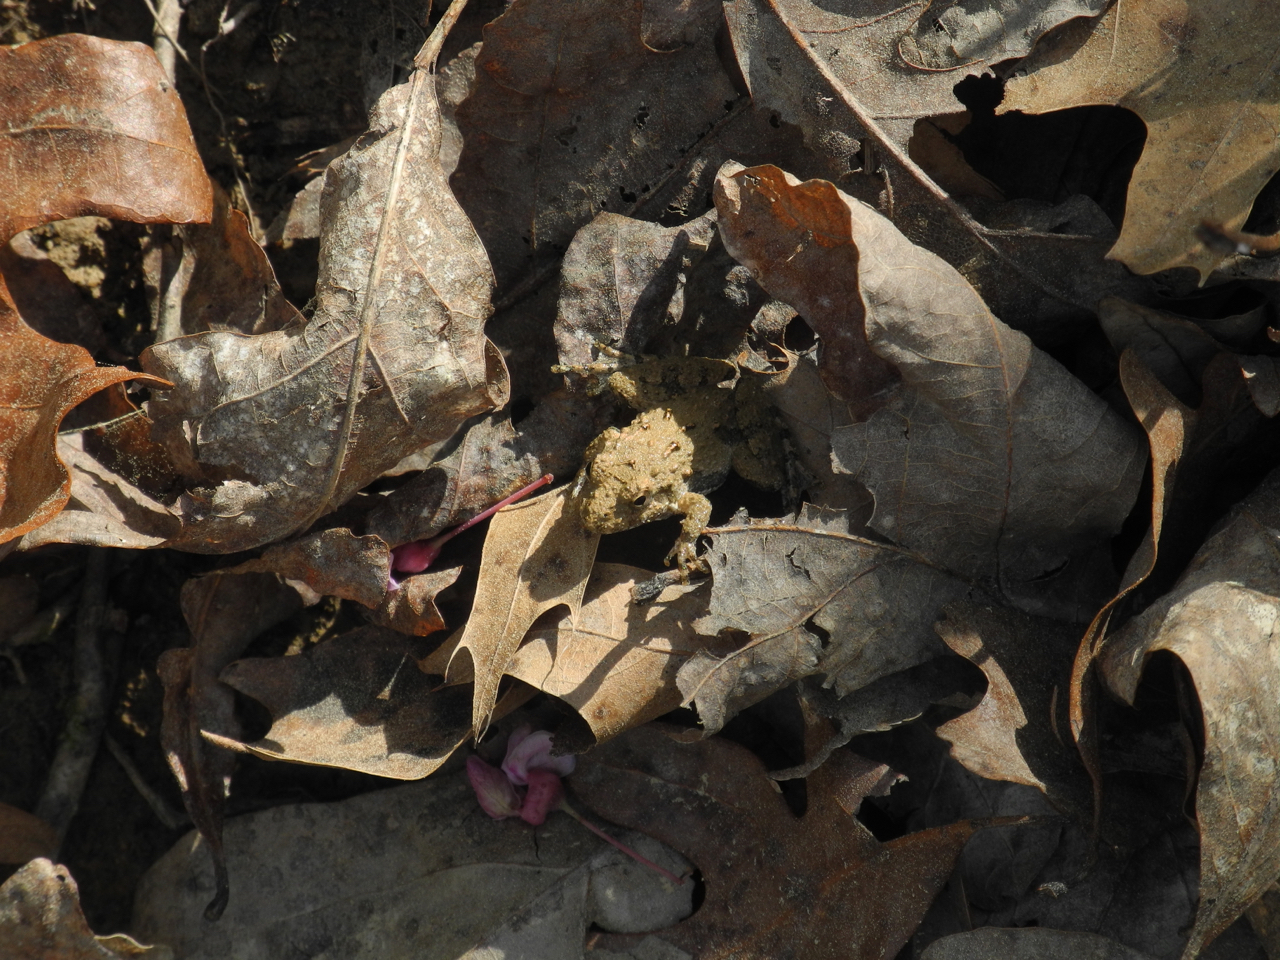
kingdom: Animalia
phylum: Chordata
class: Amphibia
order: Anura
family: Hylidae
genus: Acris
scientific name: Acris crepitans
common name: Northern cricket frog
